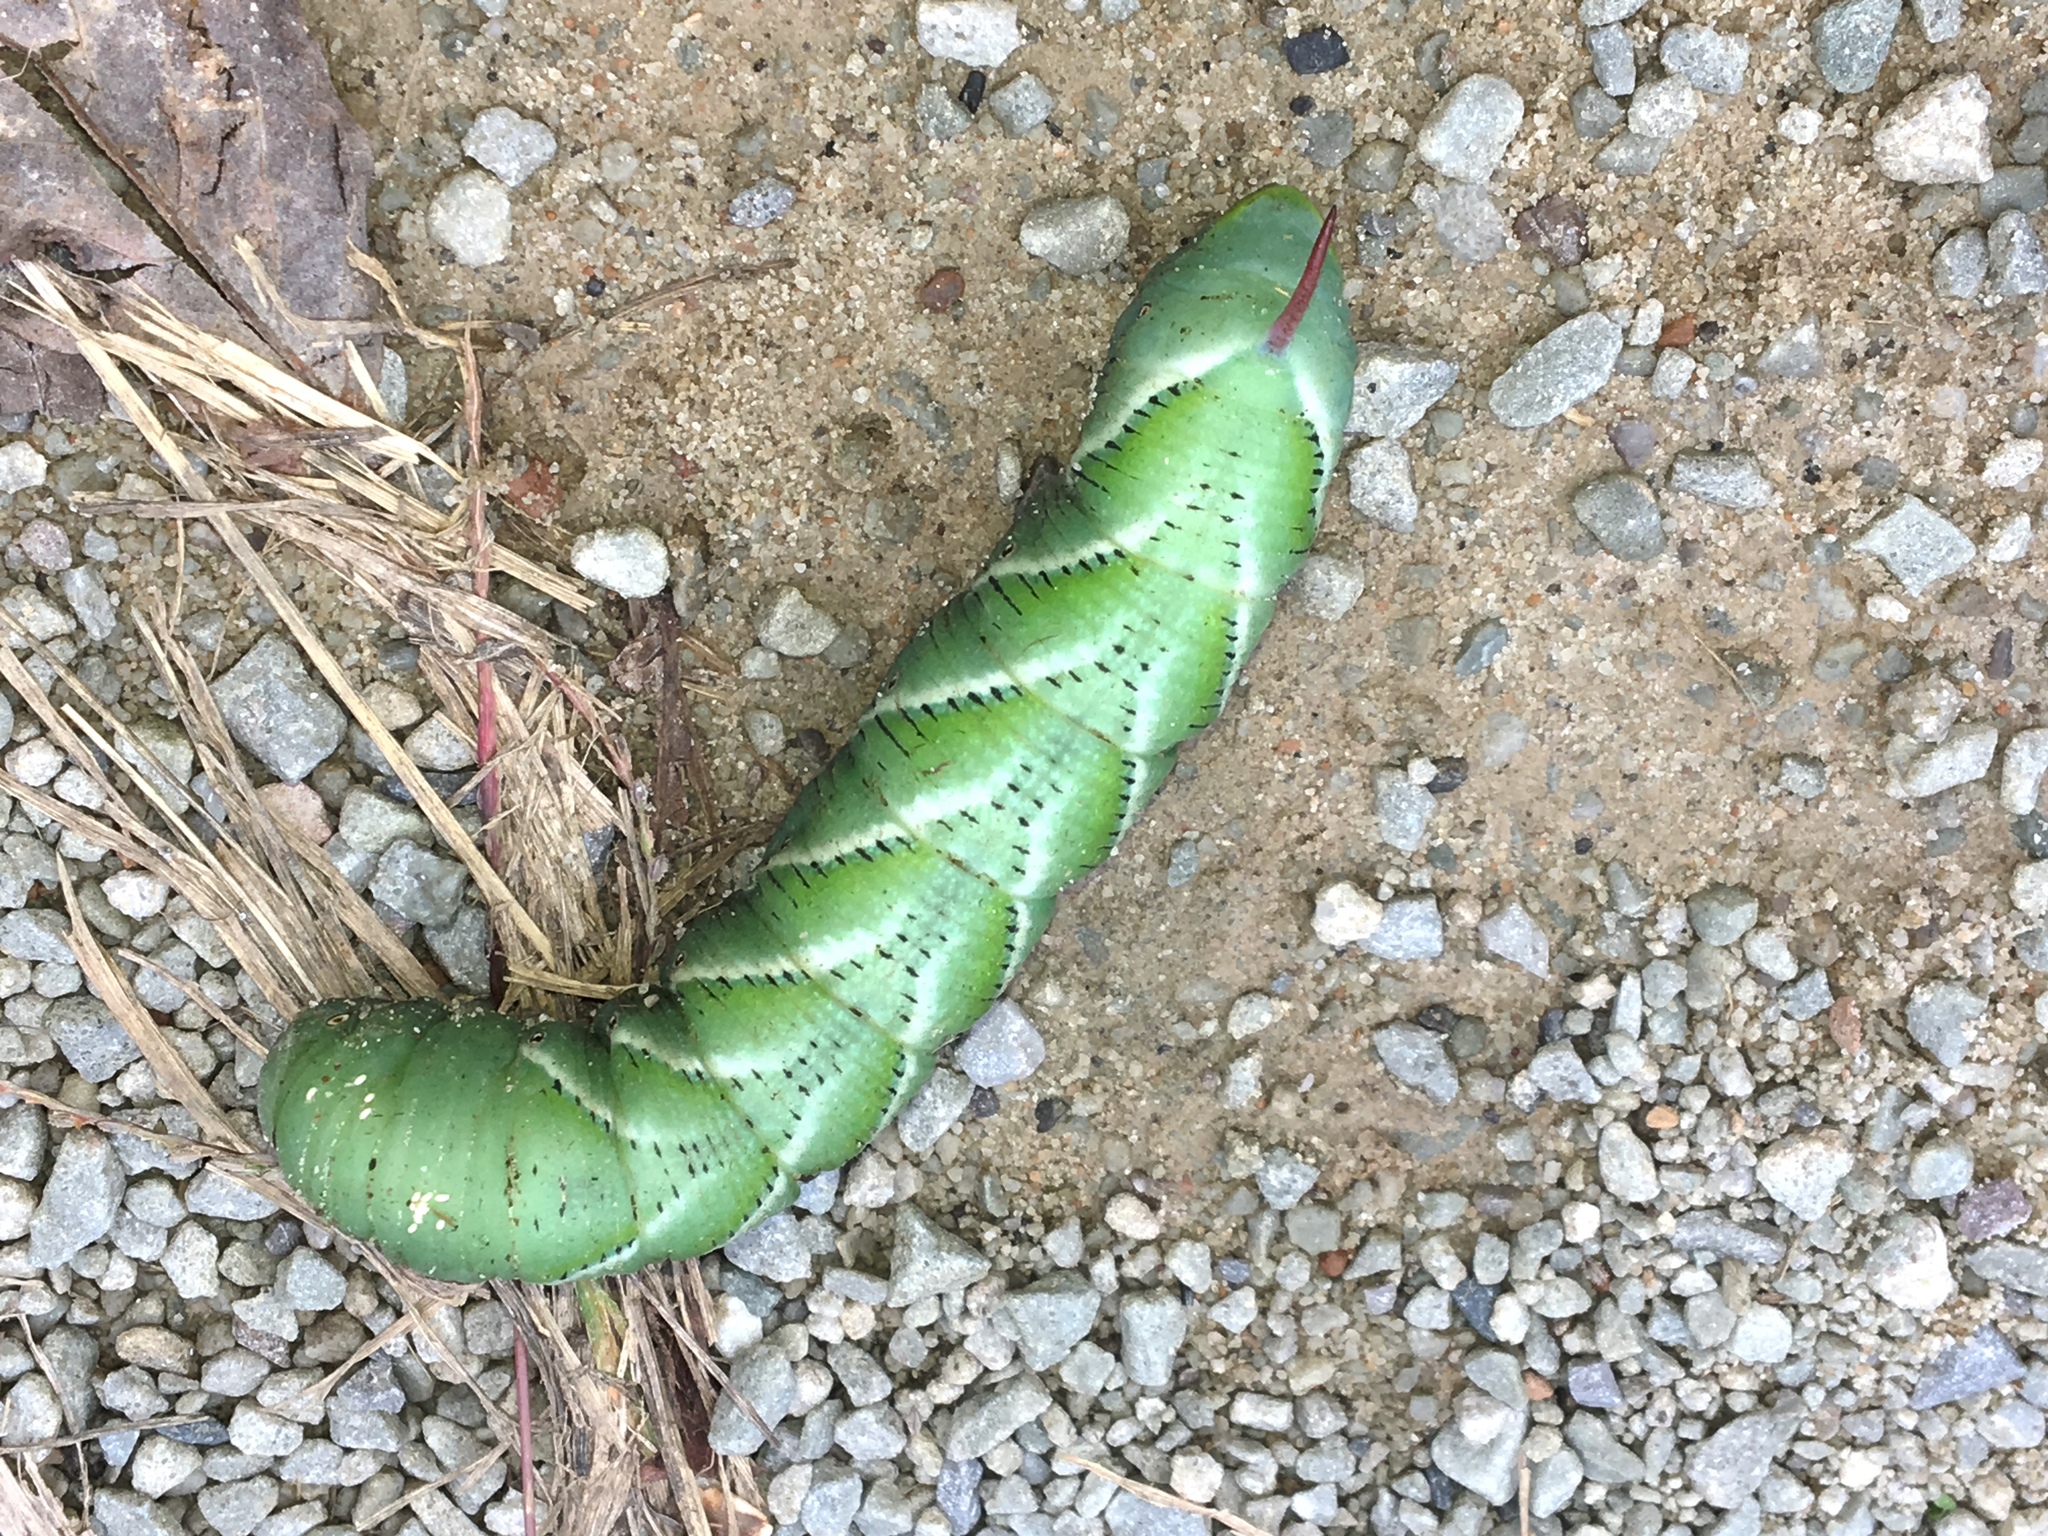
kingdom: Animalia
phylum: Arthropoda
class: Insecta
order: Lepidoptera
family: Sphingidae
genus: Manduca
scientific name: Manduca sexta
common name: Carolina sphinx
